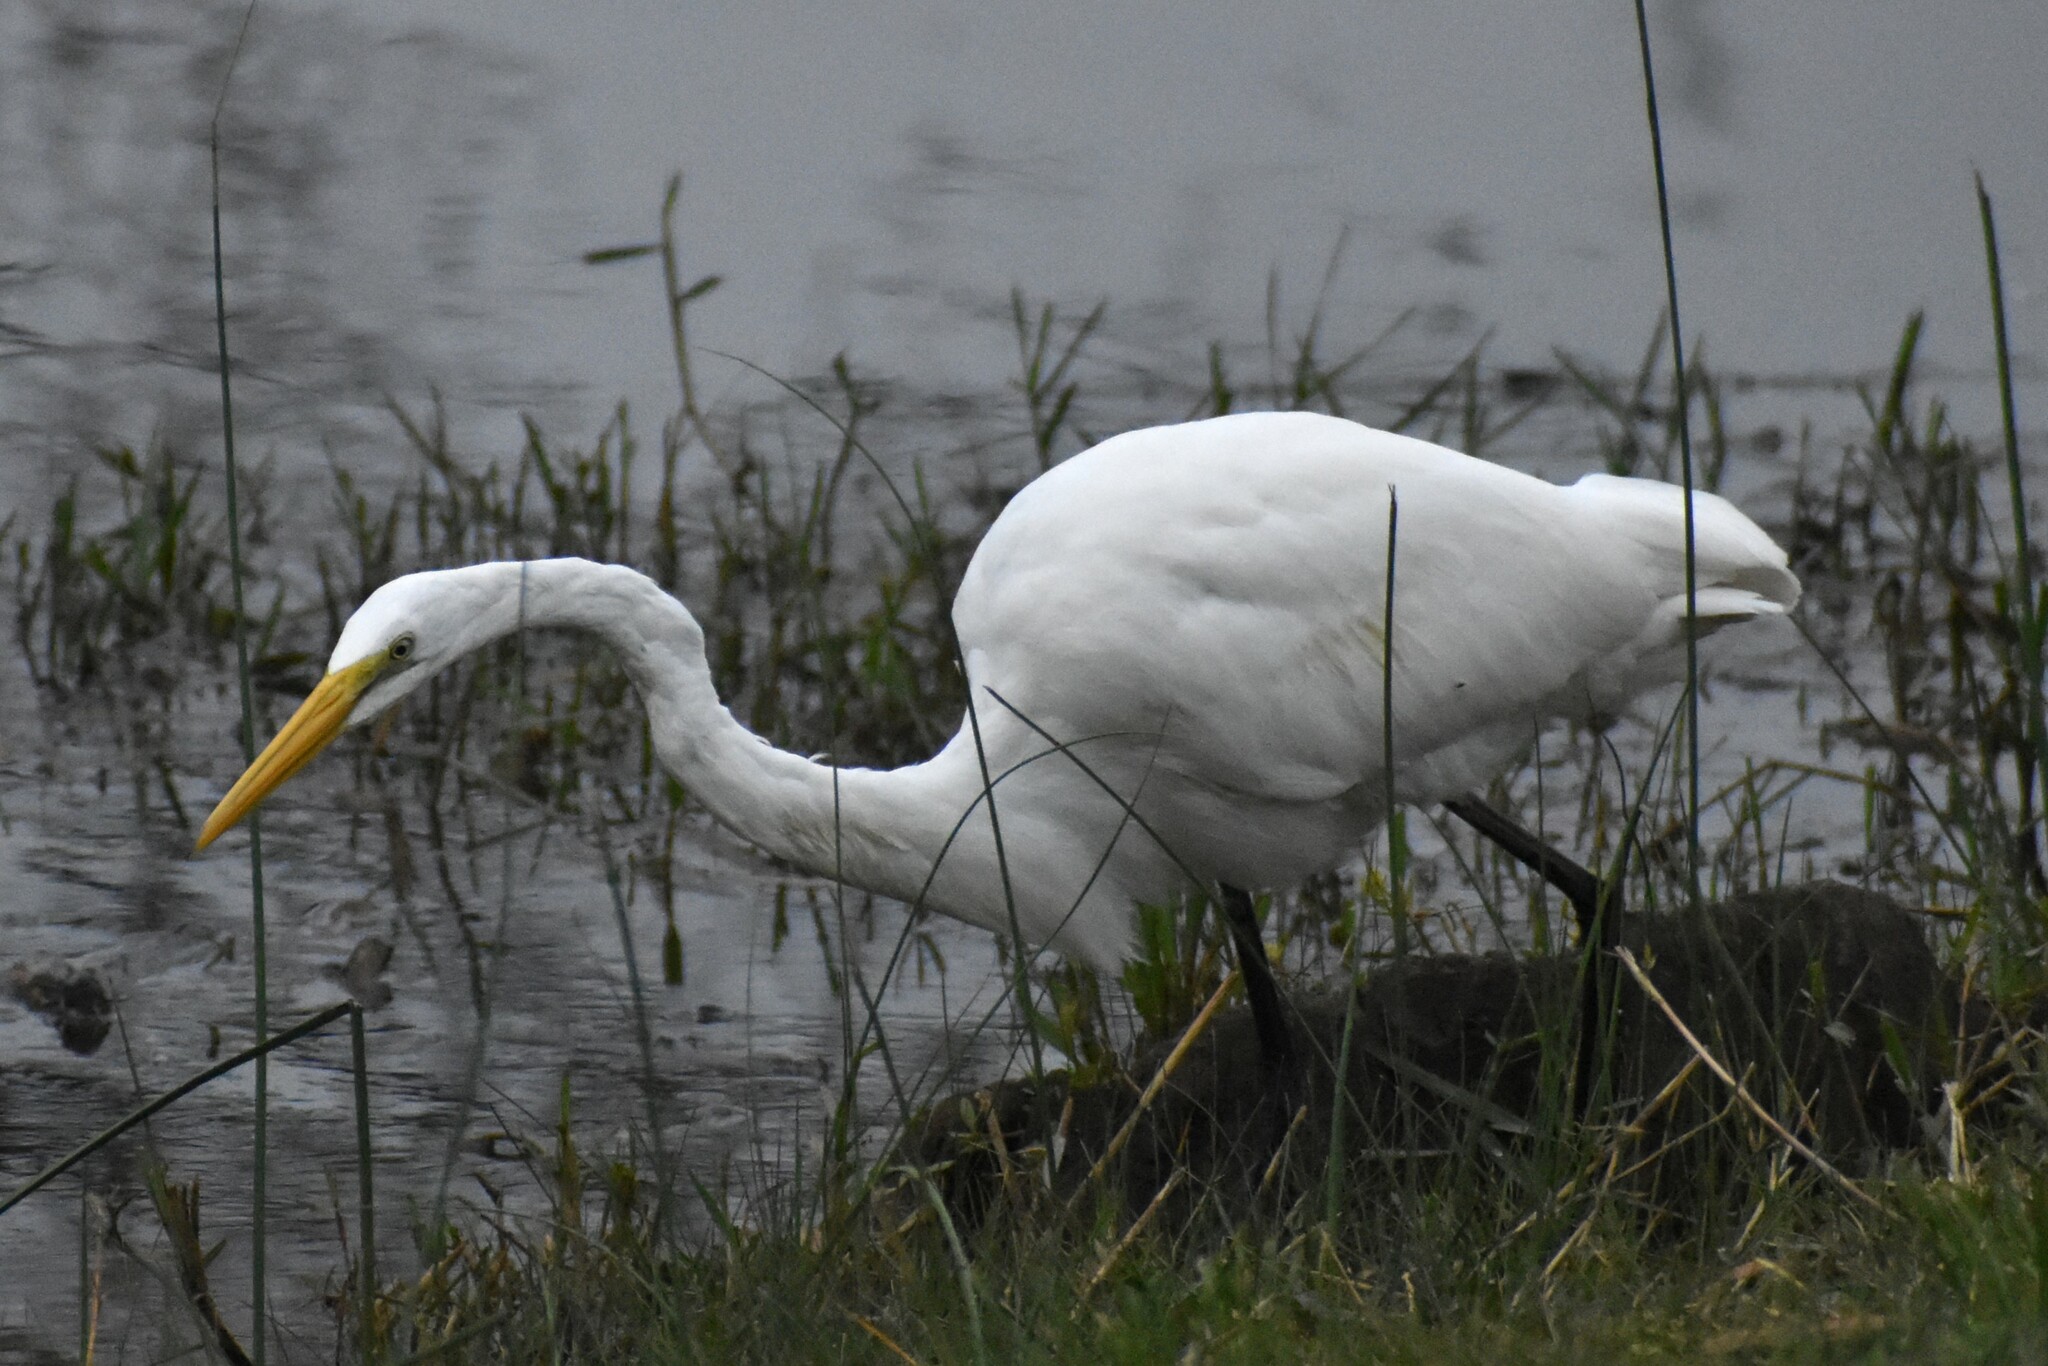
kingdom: Animalia
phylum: Chordata
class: Aves
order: Pelecaniformes
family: Ardeidae
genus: Ardea
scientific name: Ardea alba
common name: Great egret
